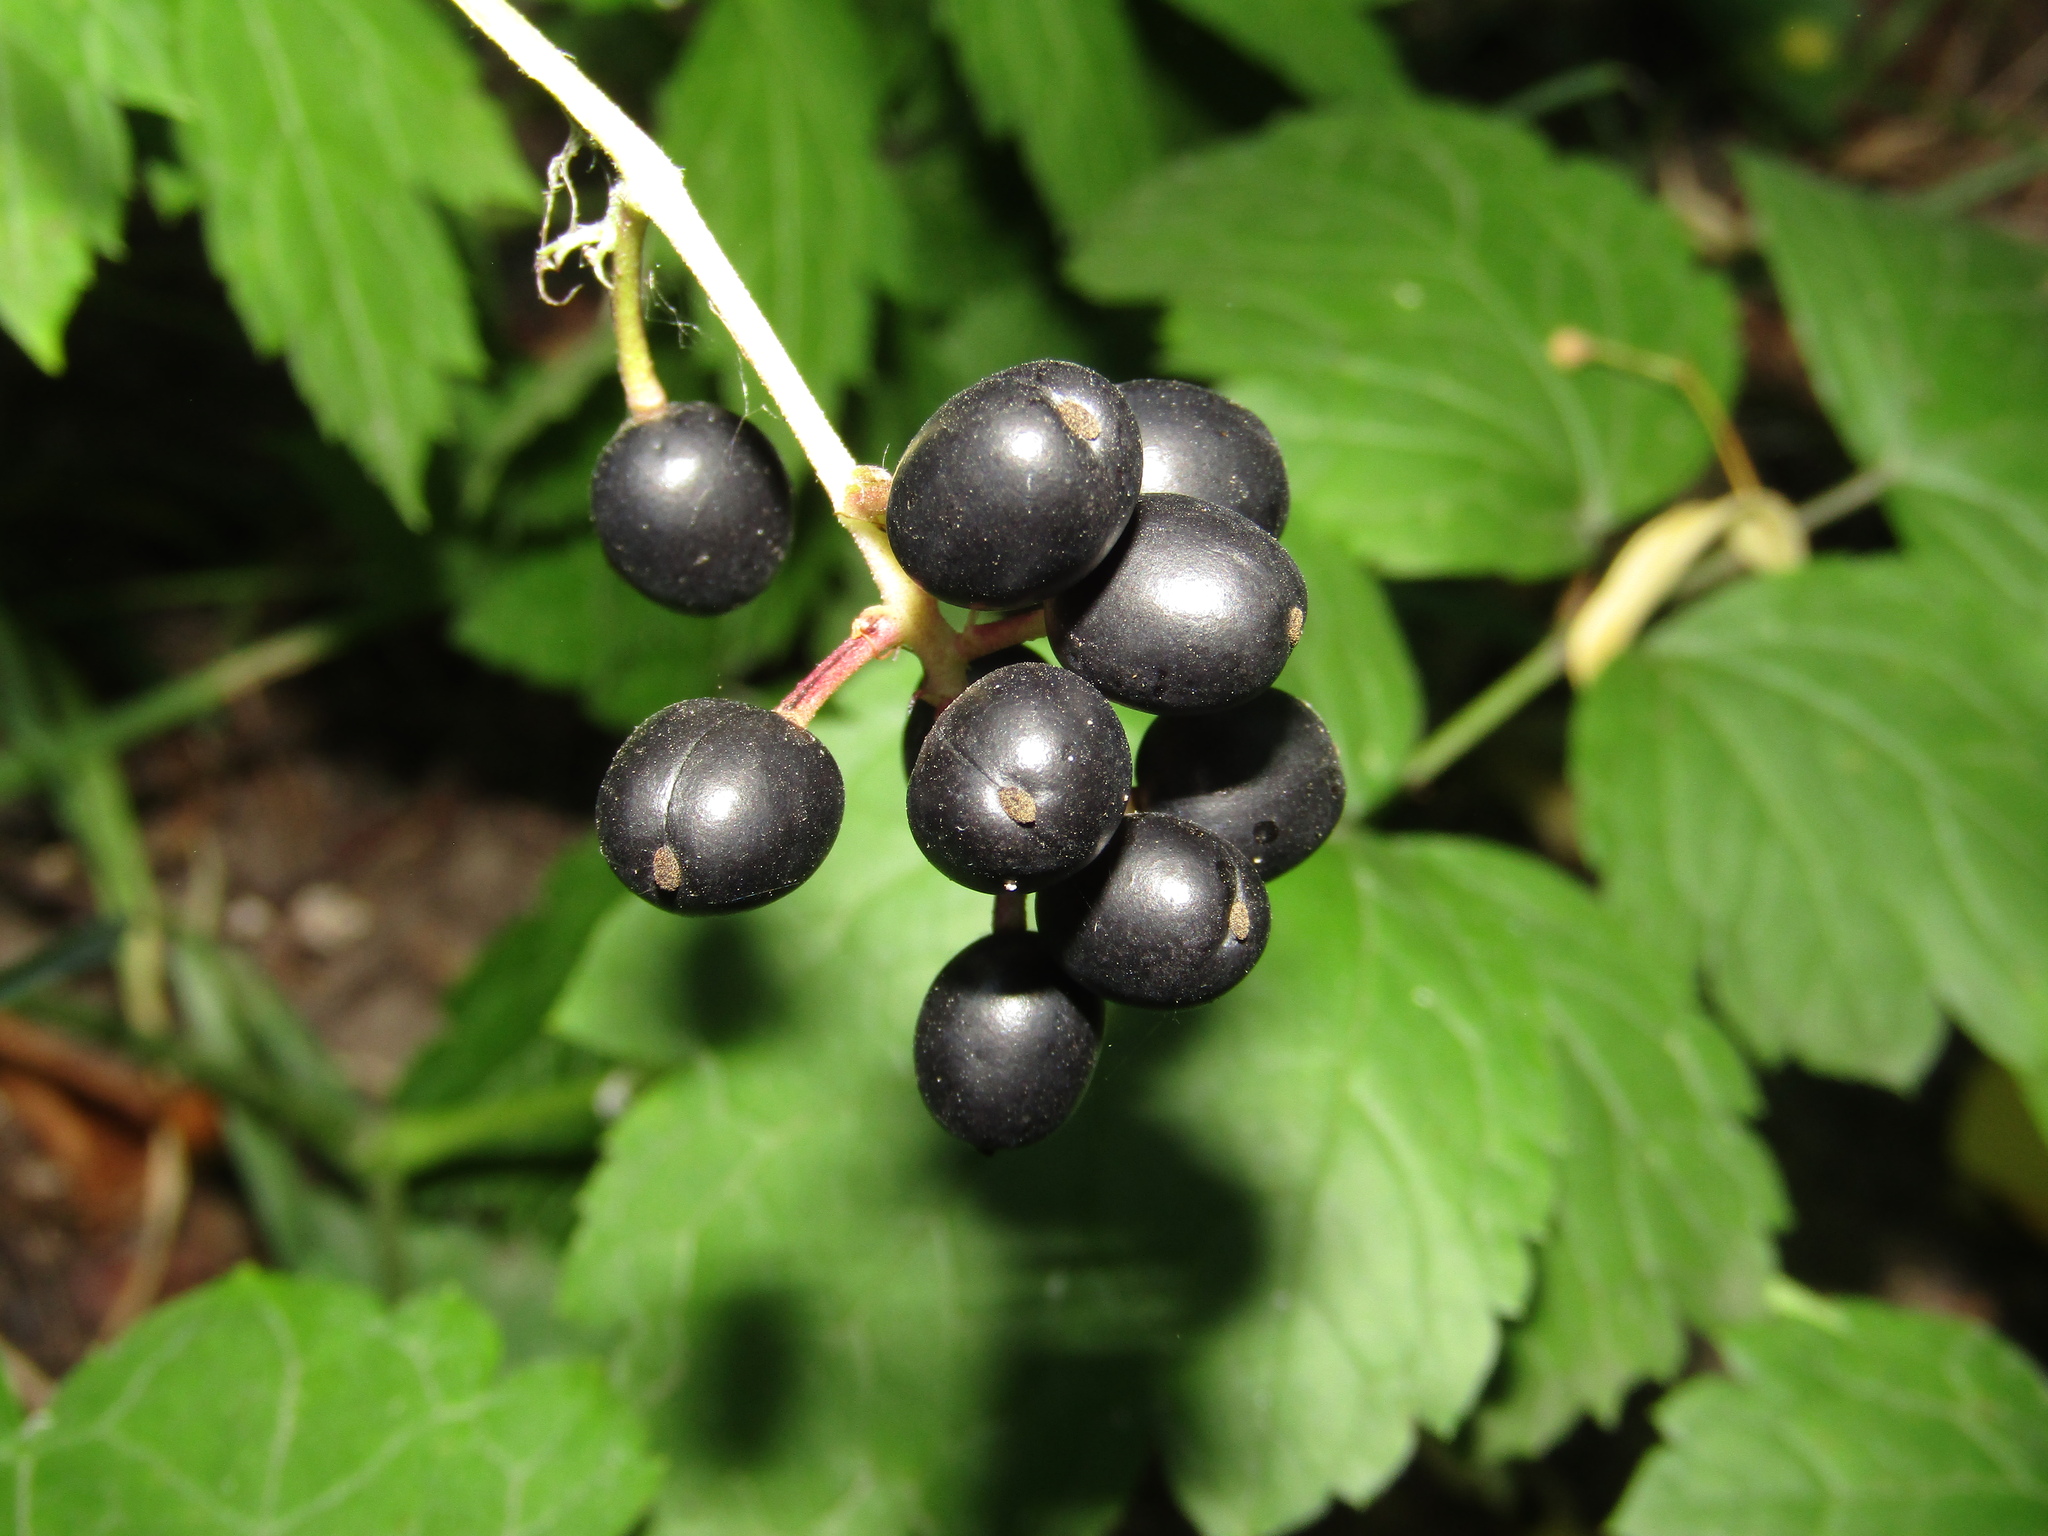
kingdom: Plantae
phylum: Tracheophyta
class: Magnoliopsida
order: Ranunculales
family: Ranunculaceae
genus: Actaea
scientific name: Actaea spicata
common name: Baneberry
